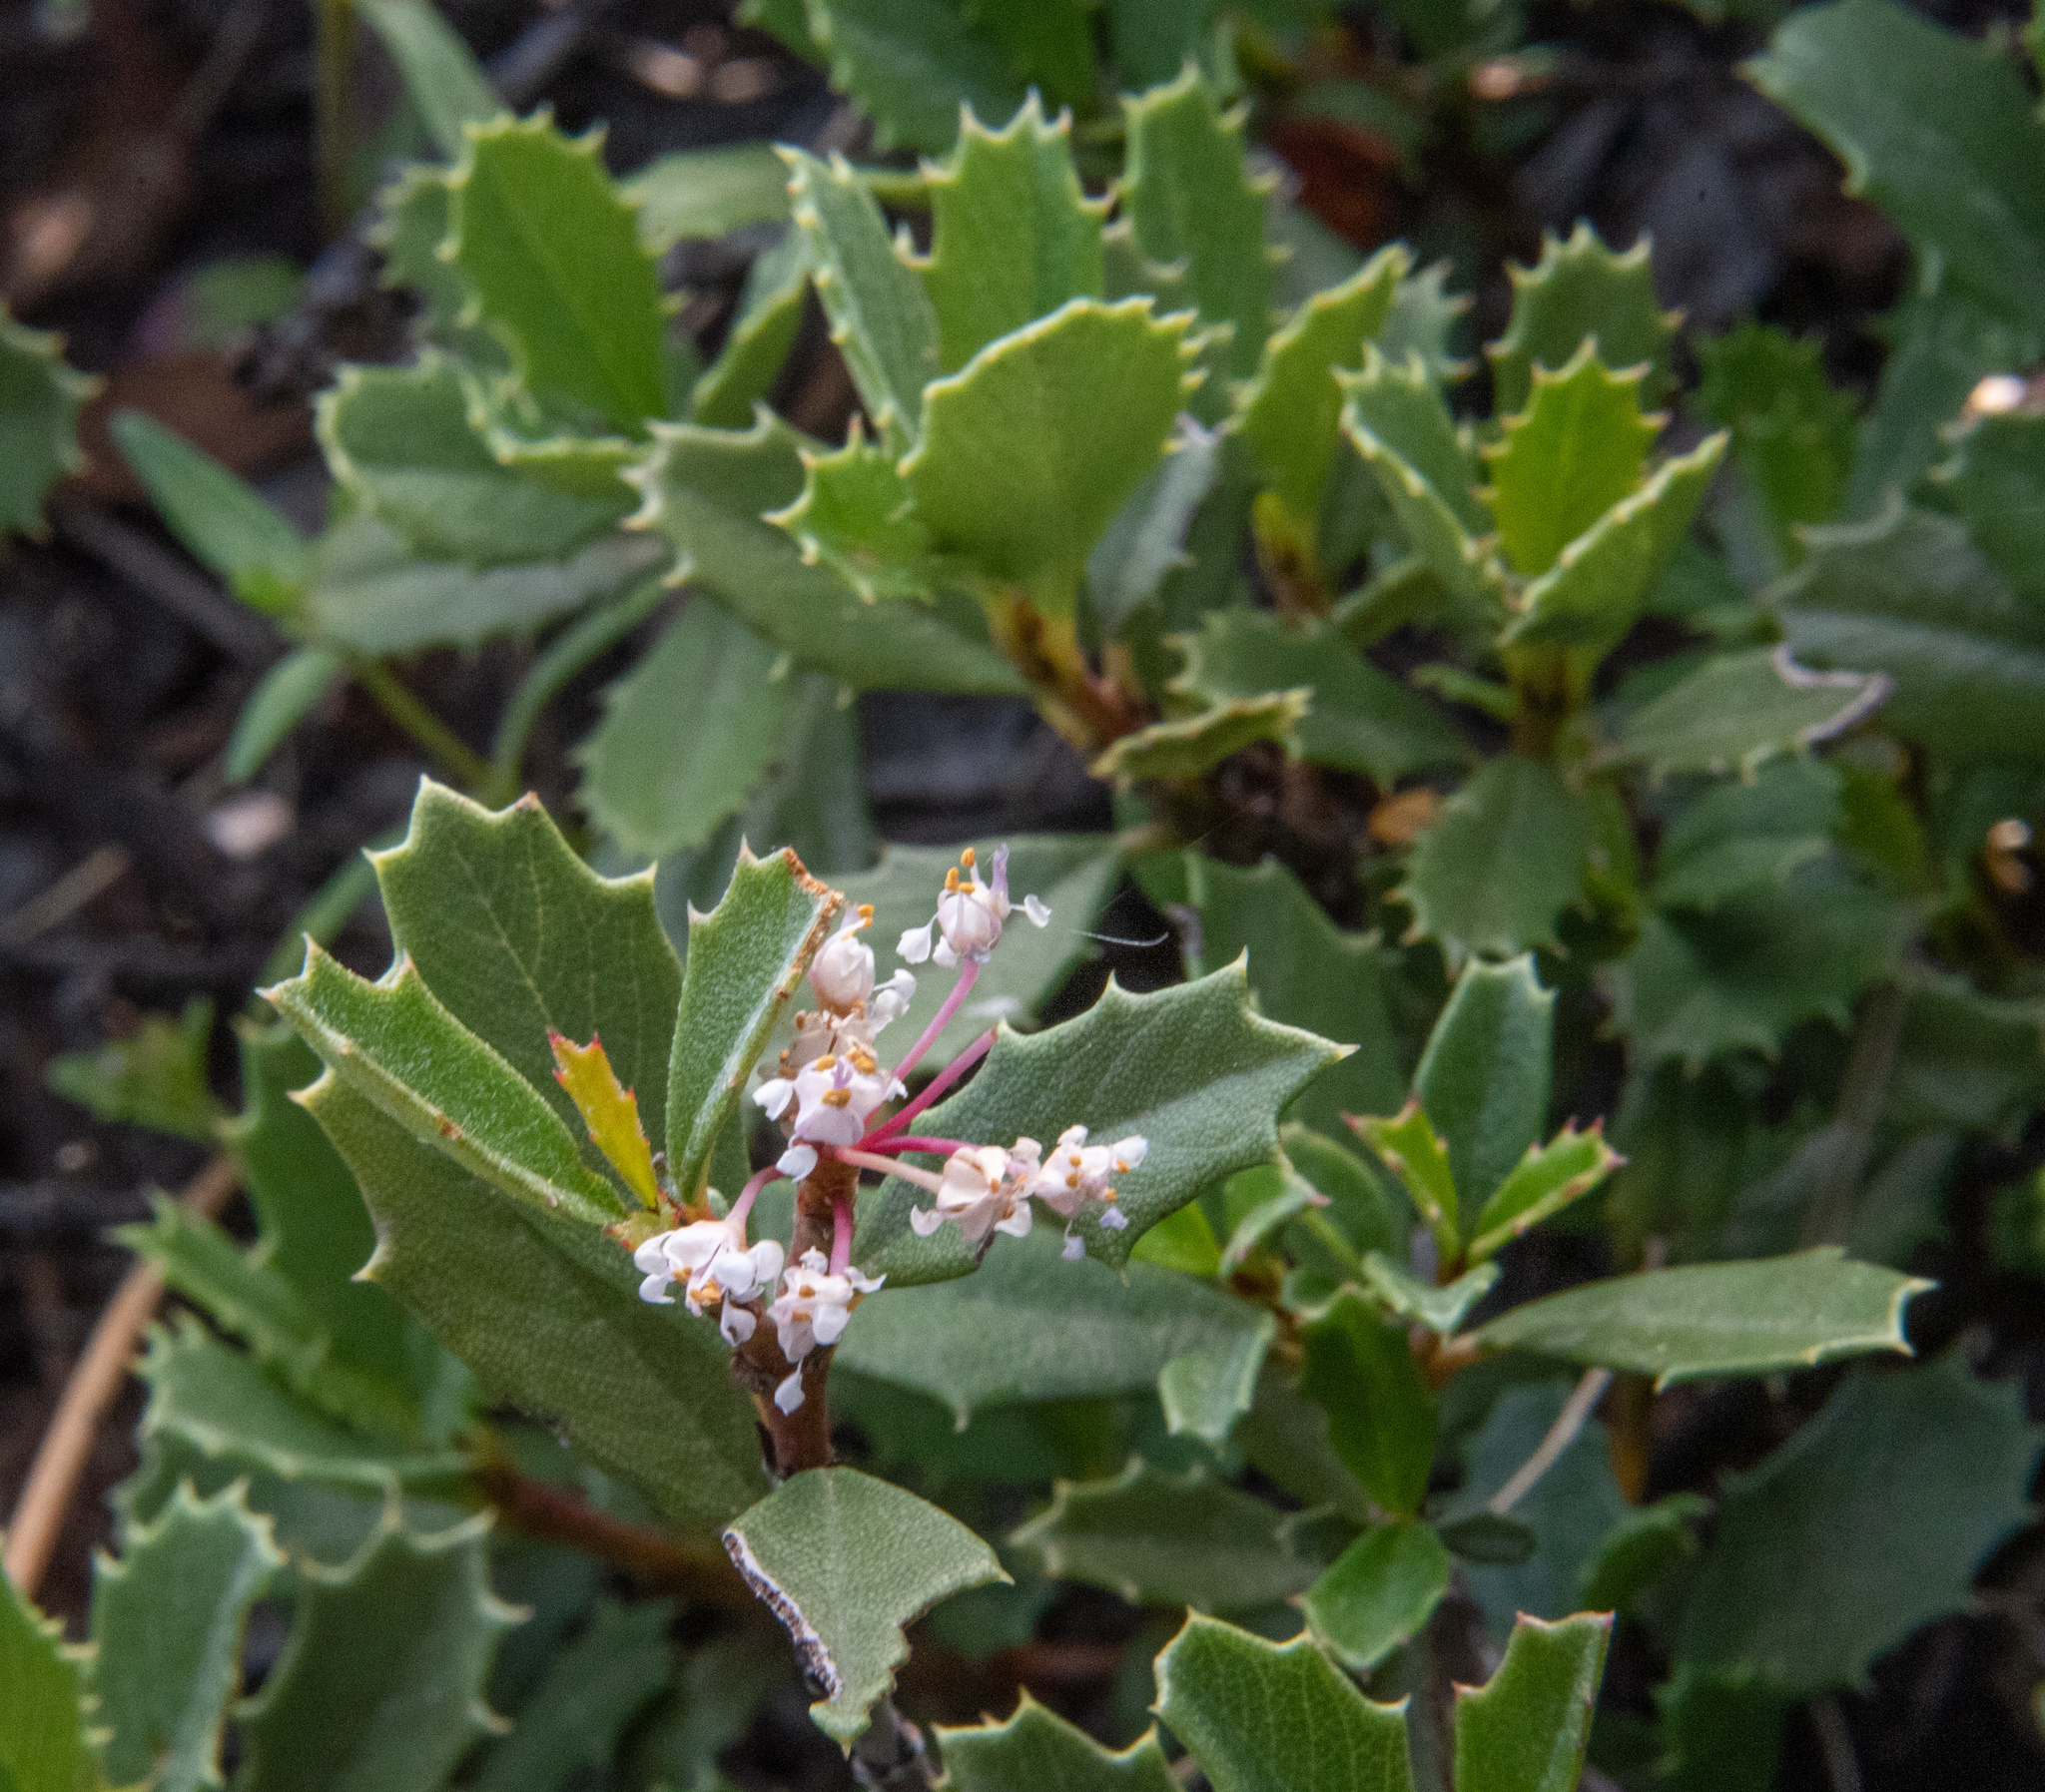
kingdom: Plantae
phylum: Tracheophyta
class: Magnoliopsida
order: Rosales
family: Rhamnaceae
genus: Ceanothus
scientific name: Ceanothus prostratus
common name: Mahala-mat
